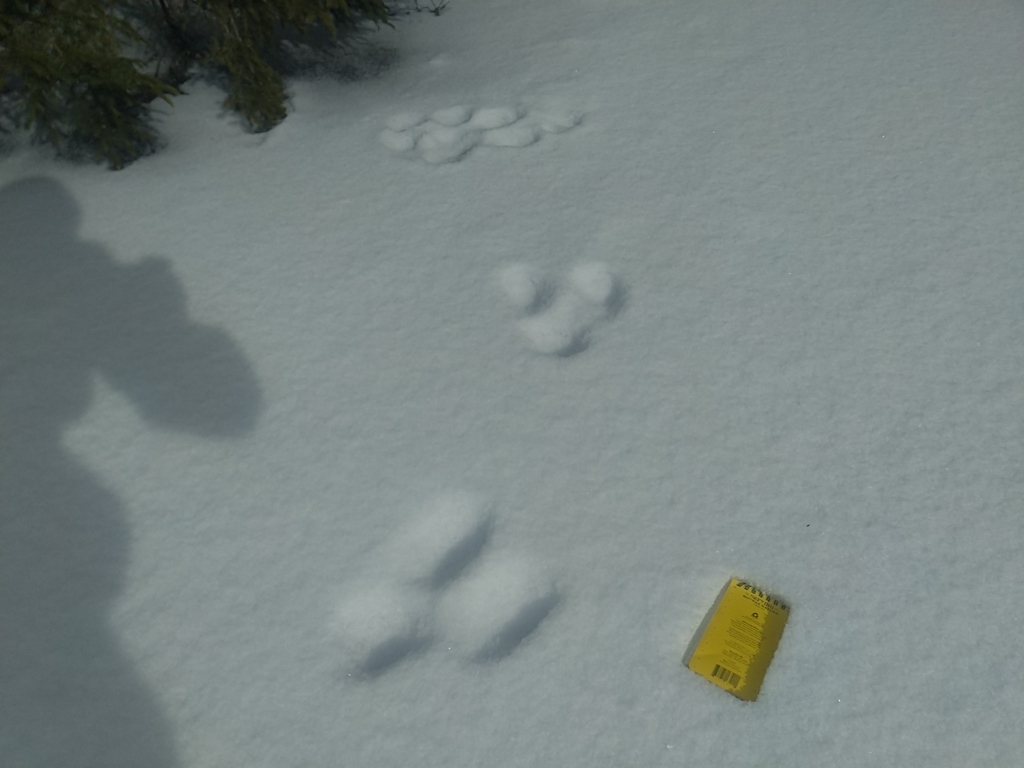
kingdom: Animalia
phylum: Chordata
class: Mammalia
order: Lagomorpha
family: Leporidae
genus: Lepus
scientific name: Lepus americanus
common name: Snowshoe hare
